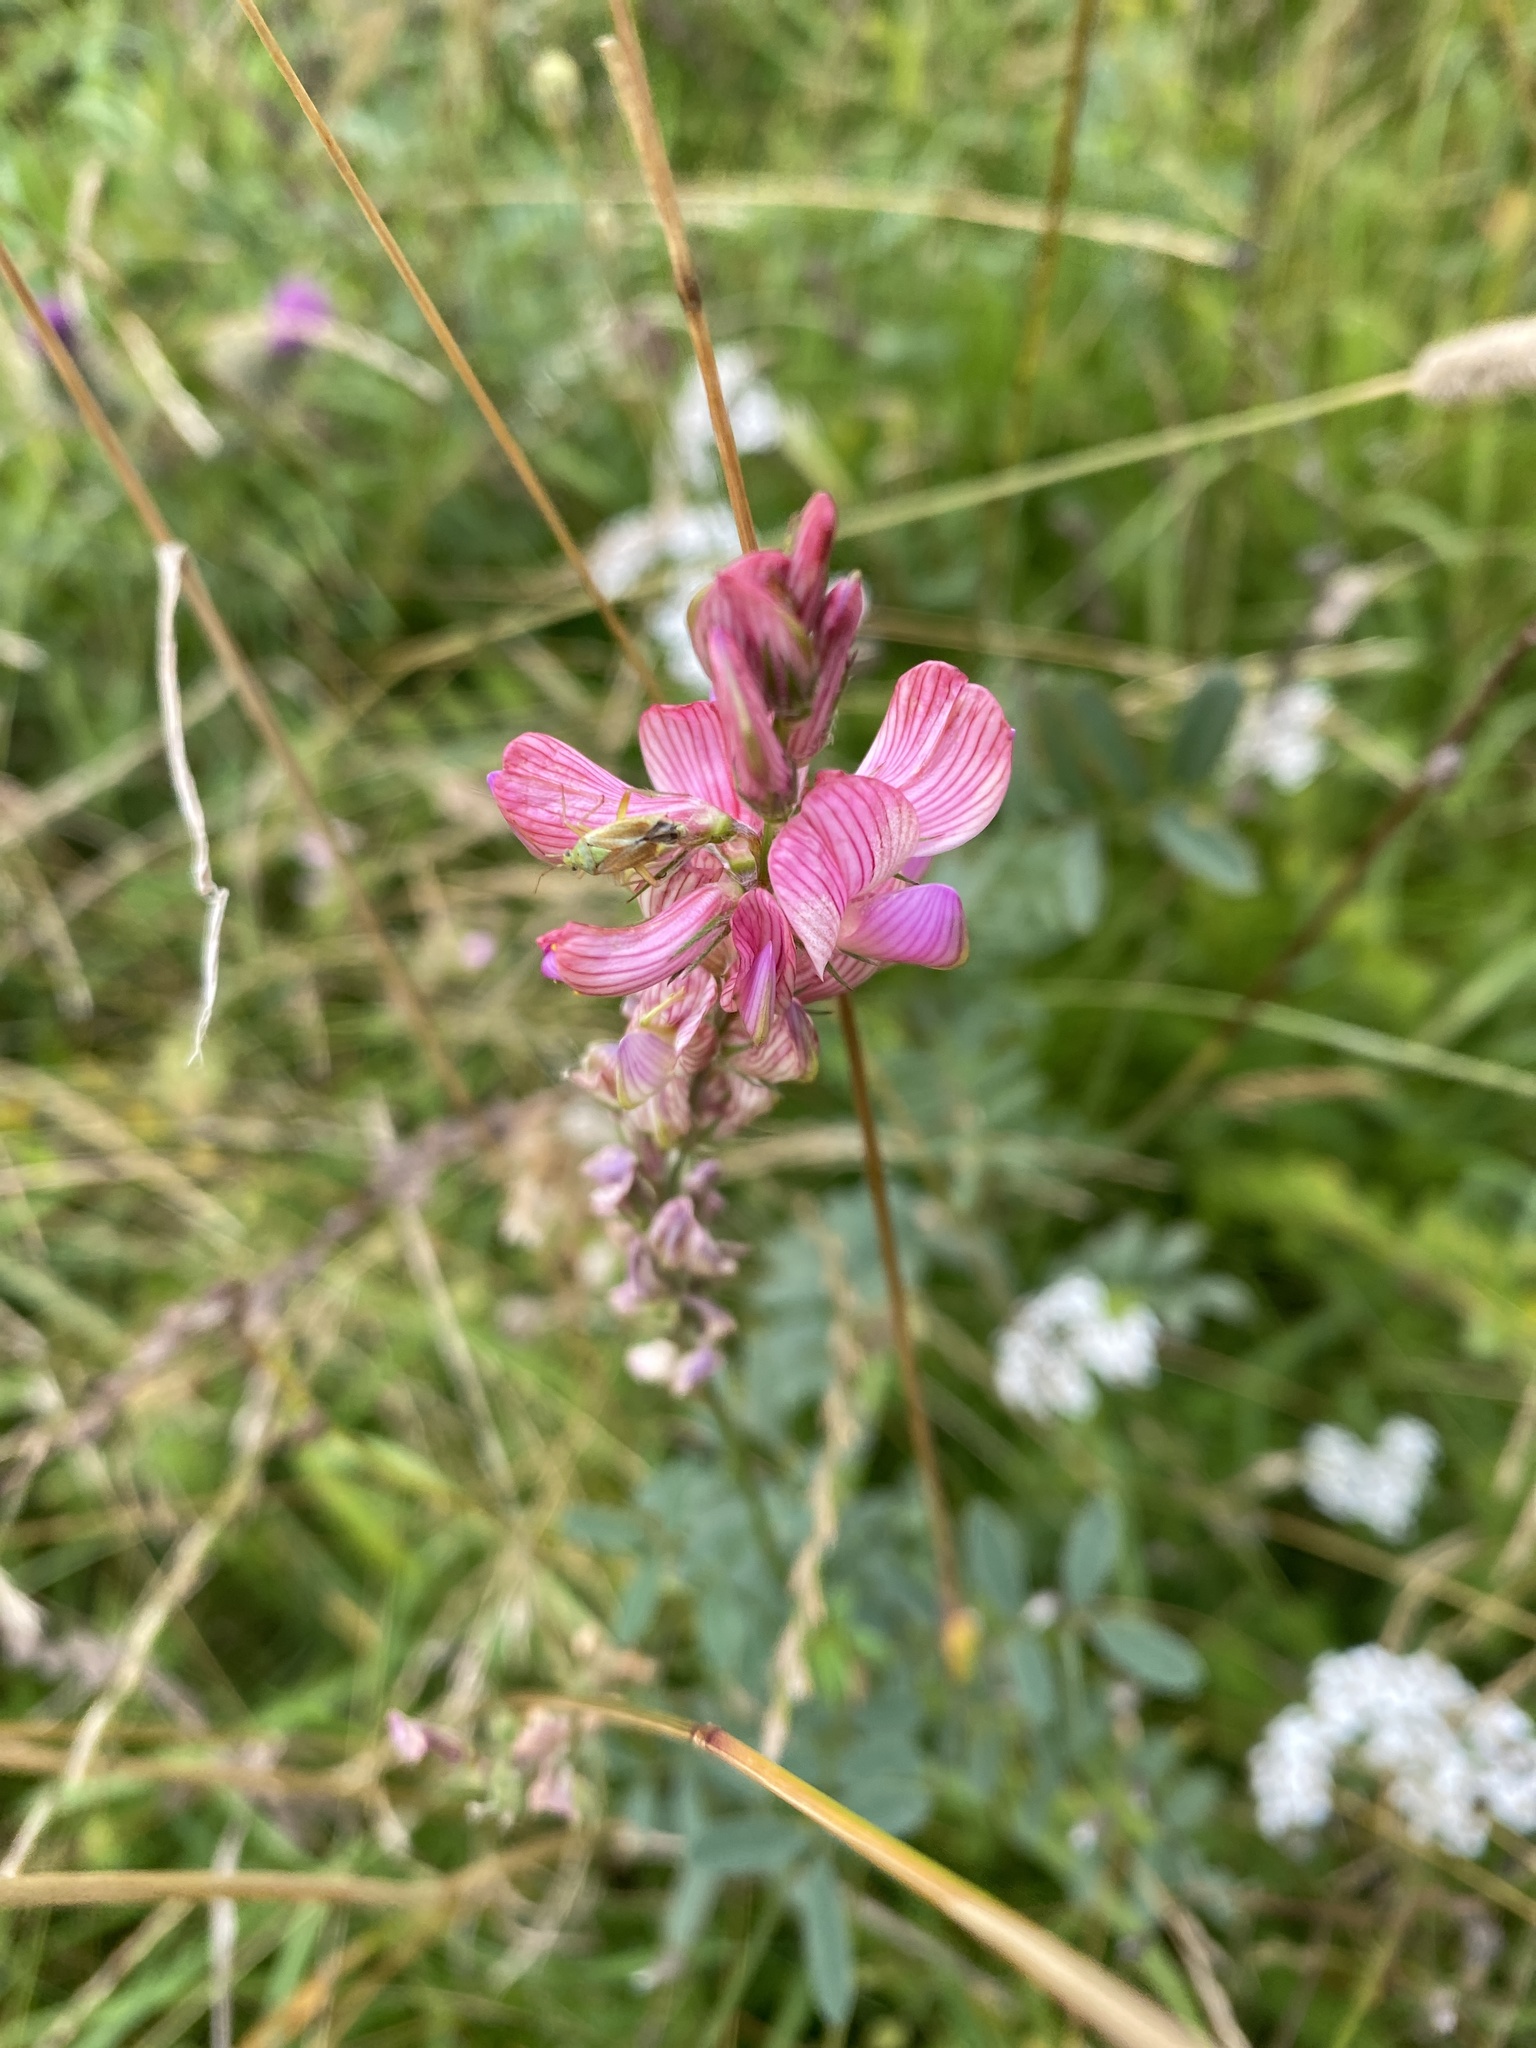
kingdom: Plantae
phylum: Tracheophyta
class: Magnoliopsida
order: Fabales
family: Fabaceae
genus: Onobrychis
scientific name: Onobrychis viciifolia
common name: Sainfoin
